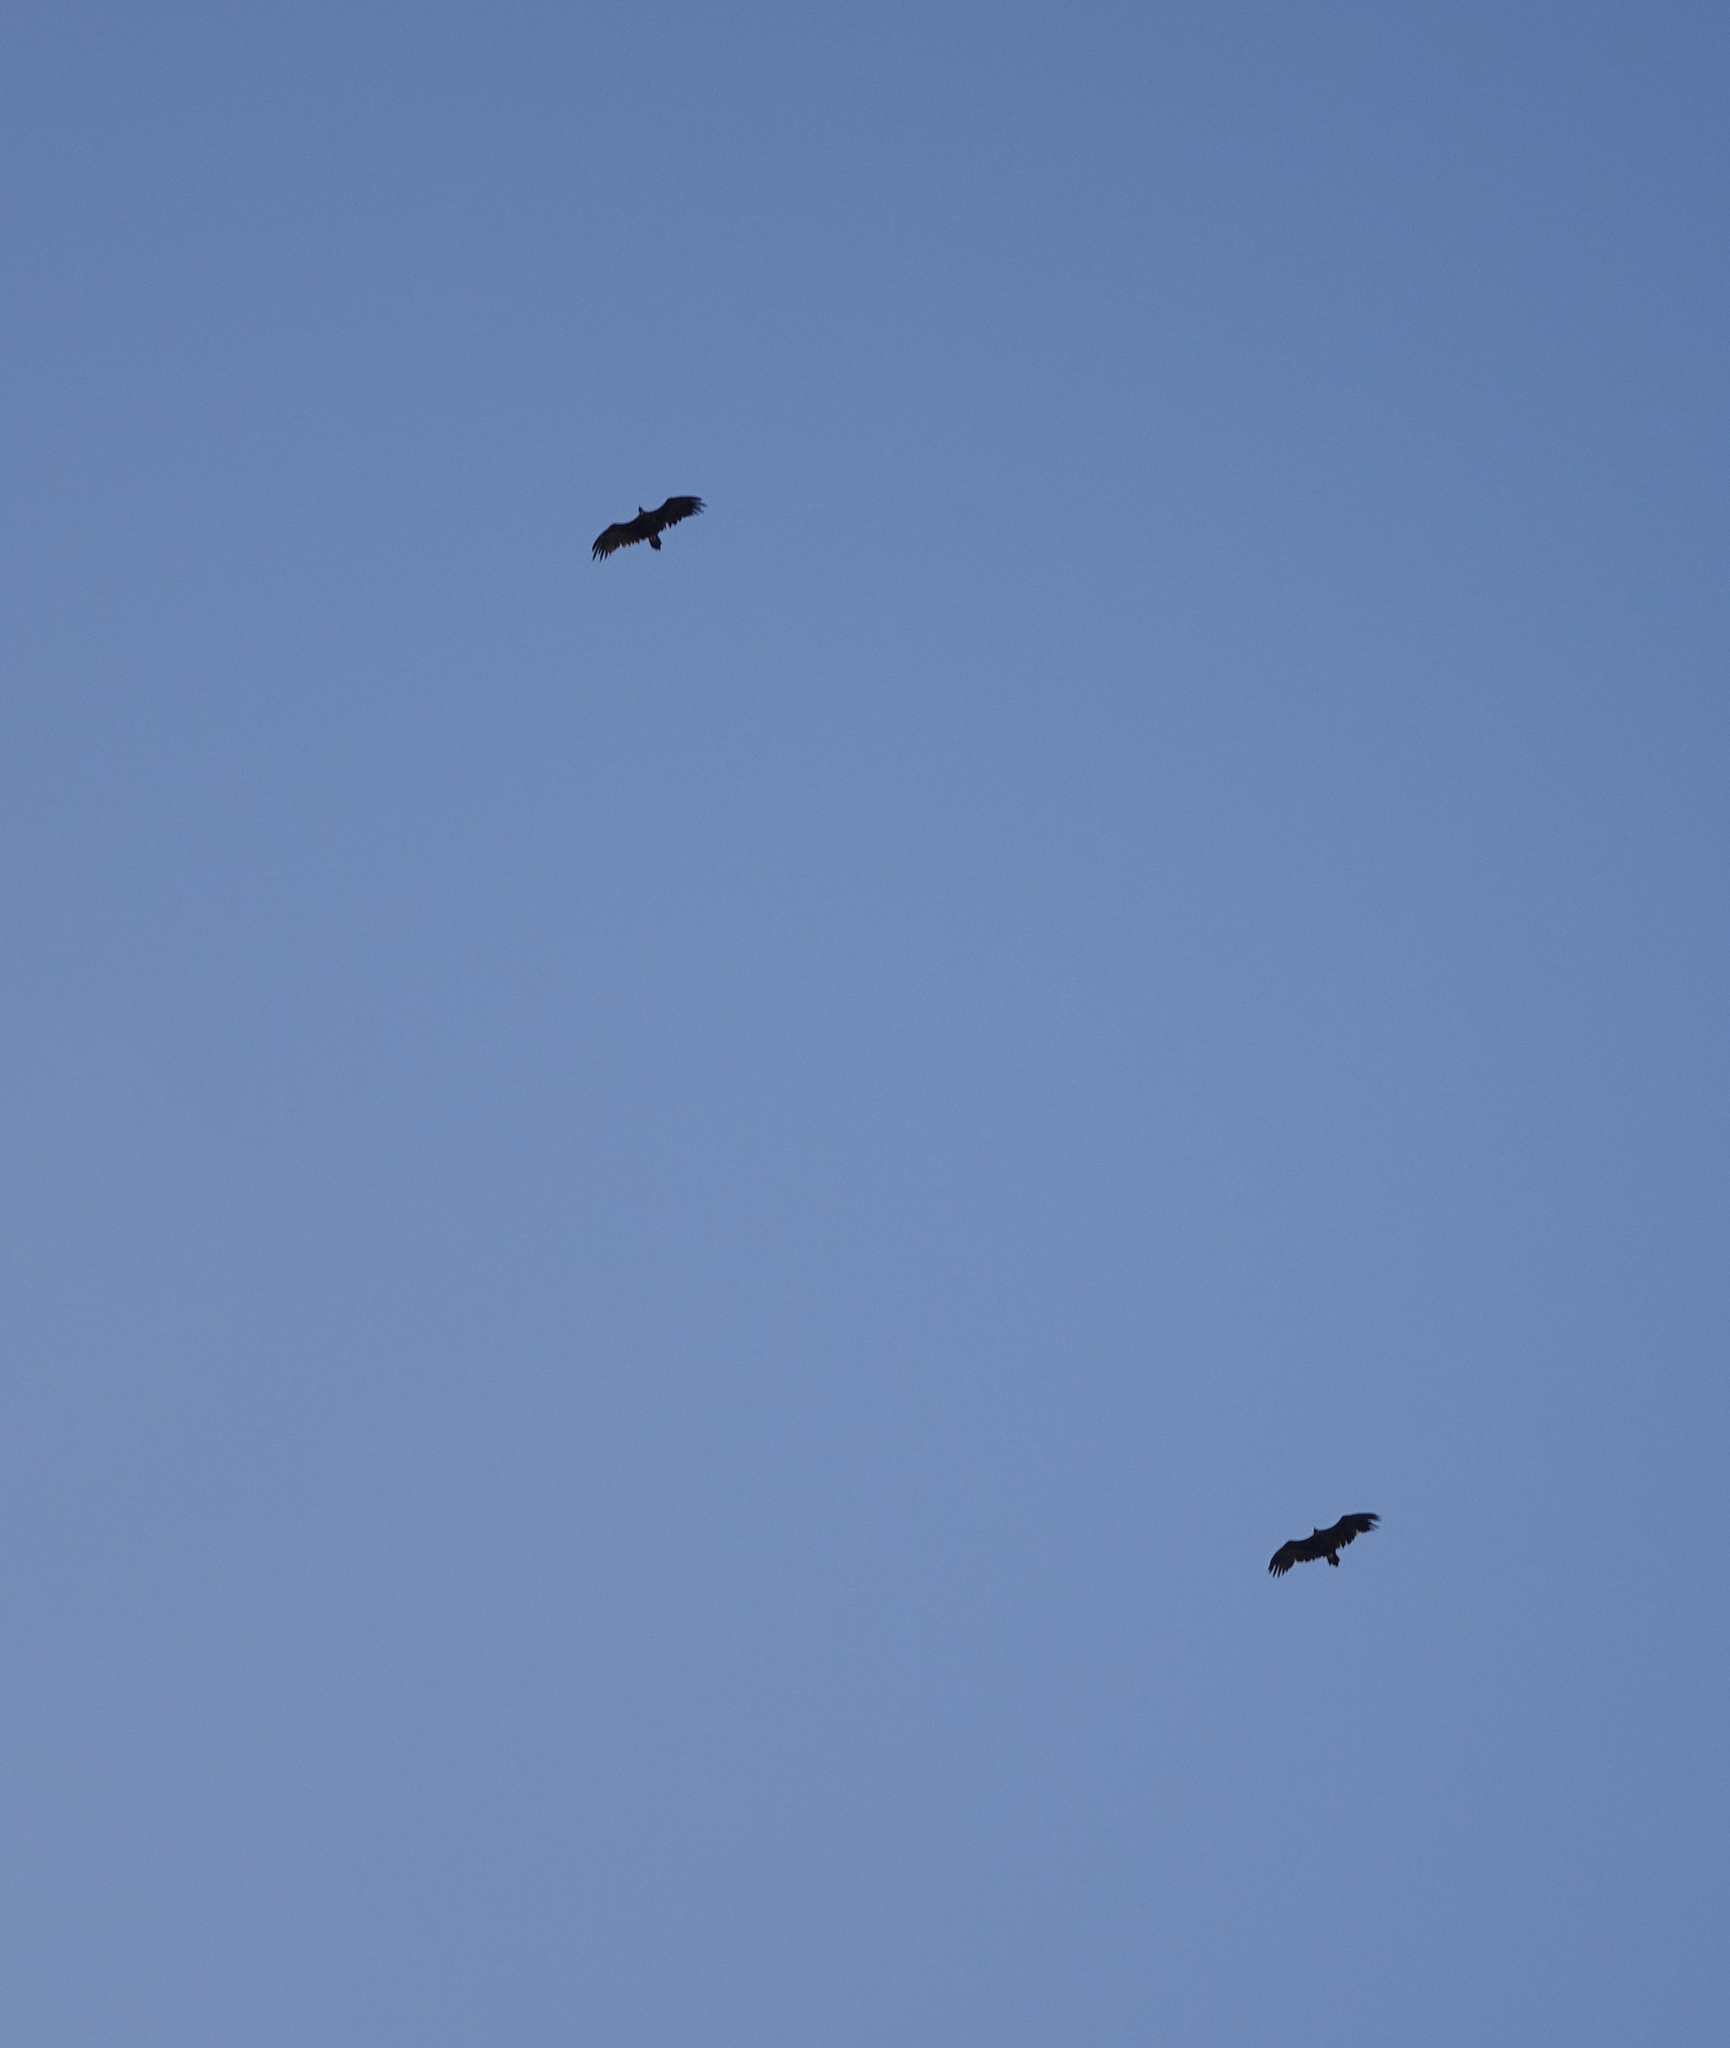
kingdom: Animalia
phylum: Chordata
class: Aves
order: Accipitriformes
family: Accipitridae
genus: Aegypius
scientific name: Aegypius monachus
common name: Cinereous vulture
